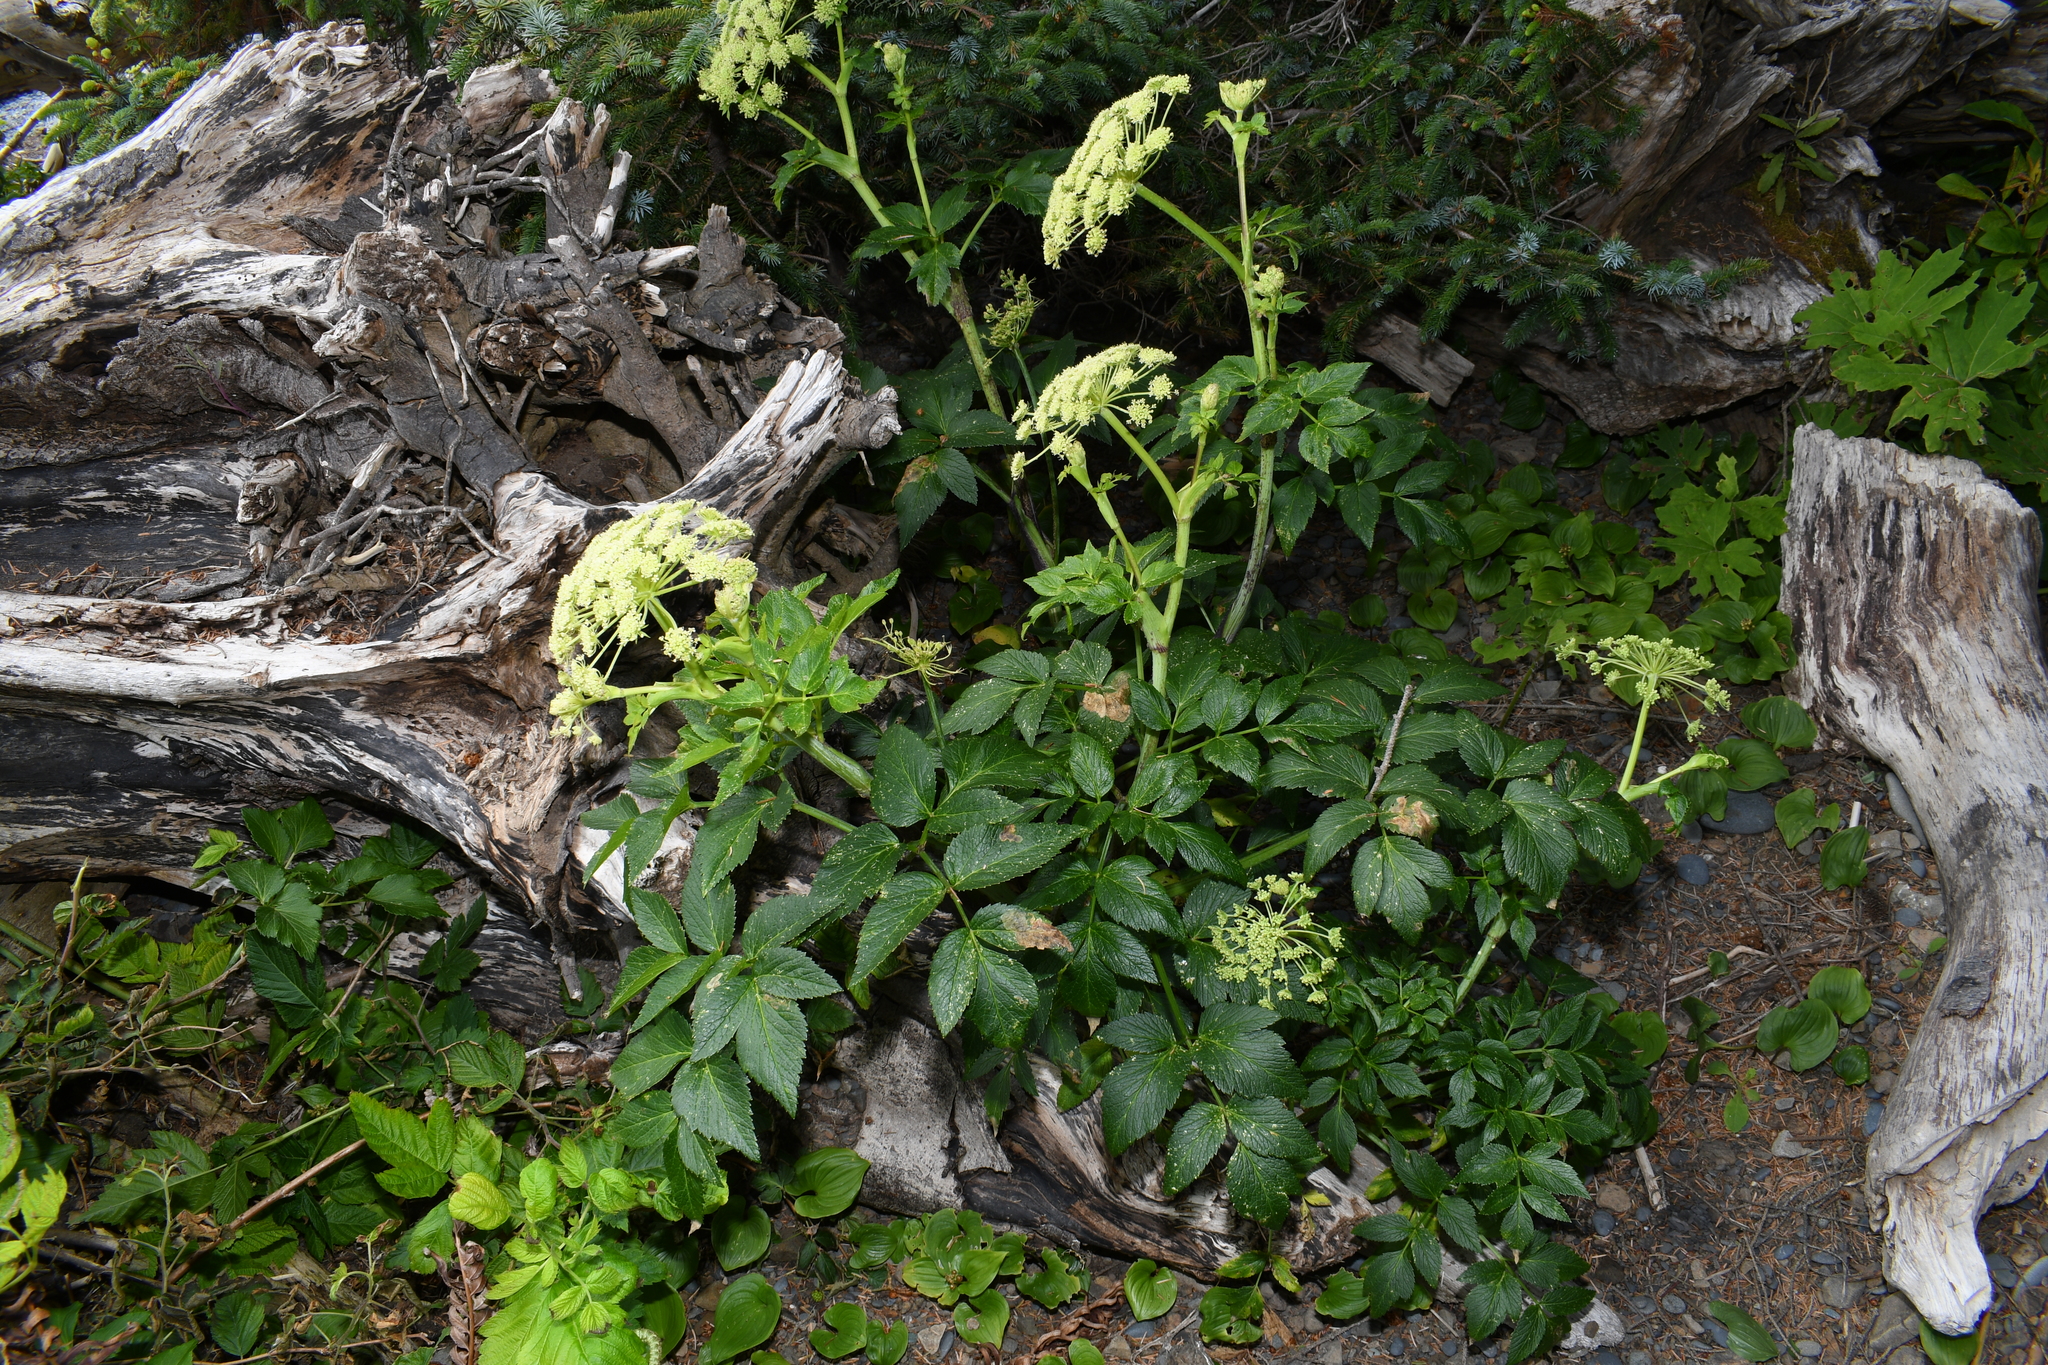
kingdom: Plantae
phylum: Tracheophyta
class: Magnoliopsida
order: Apiales
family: Apiaceae
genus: Angelica
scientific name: Angelica lucida
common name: Seabeach angelica
